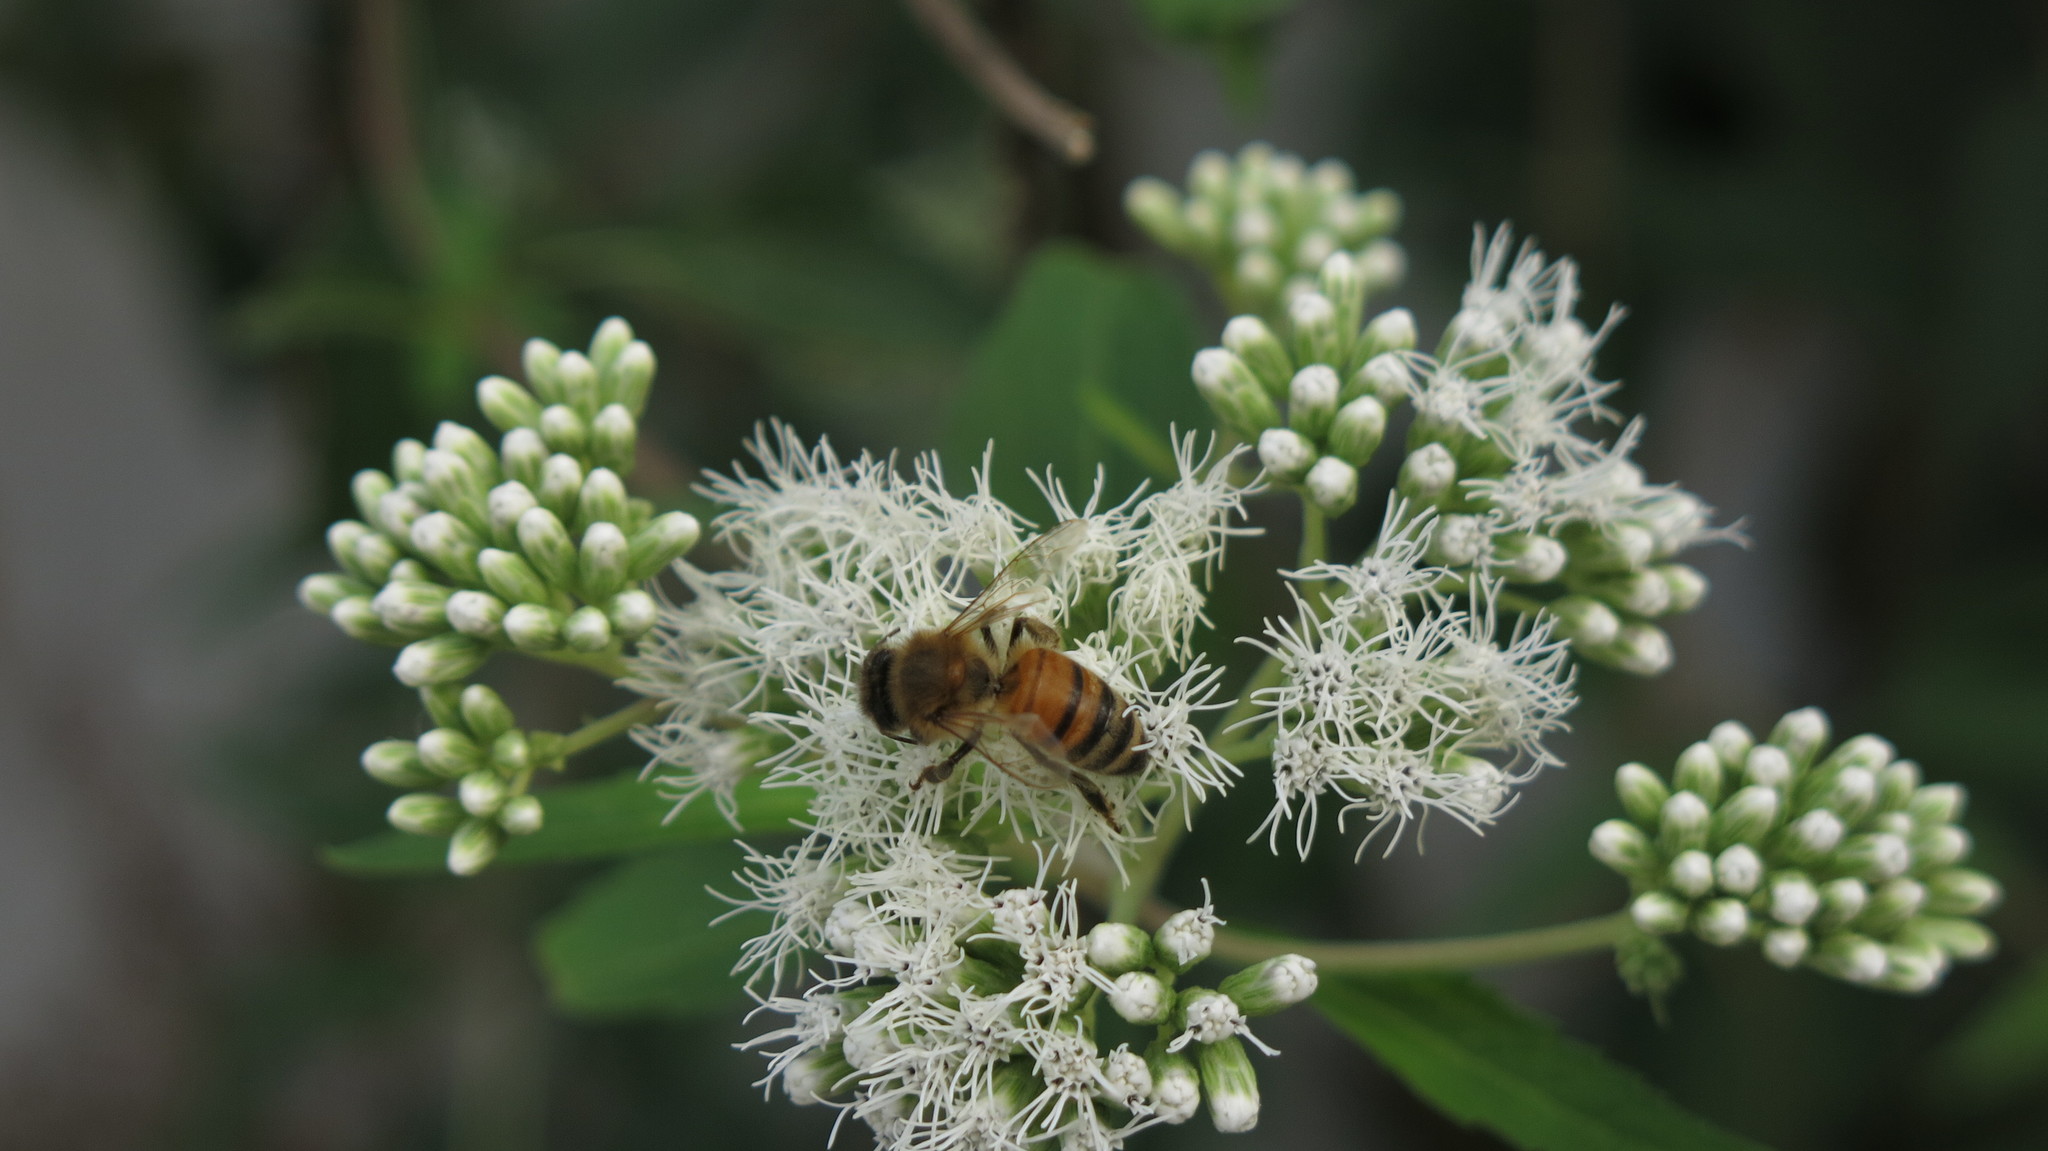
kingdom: Animalia
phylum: Arthropoda
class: Insecta
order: Hymenoptera
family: Apidae
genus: Apis
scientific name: Apis mellifera
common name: Honey bee
